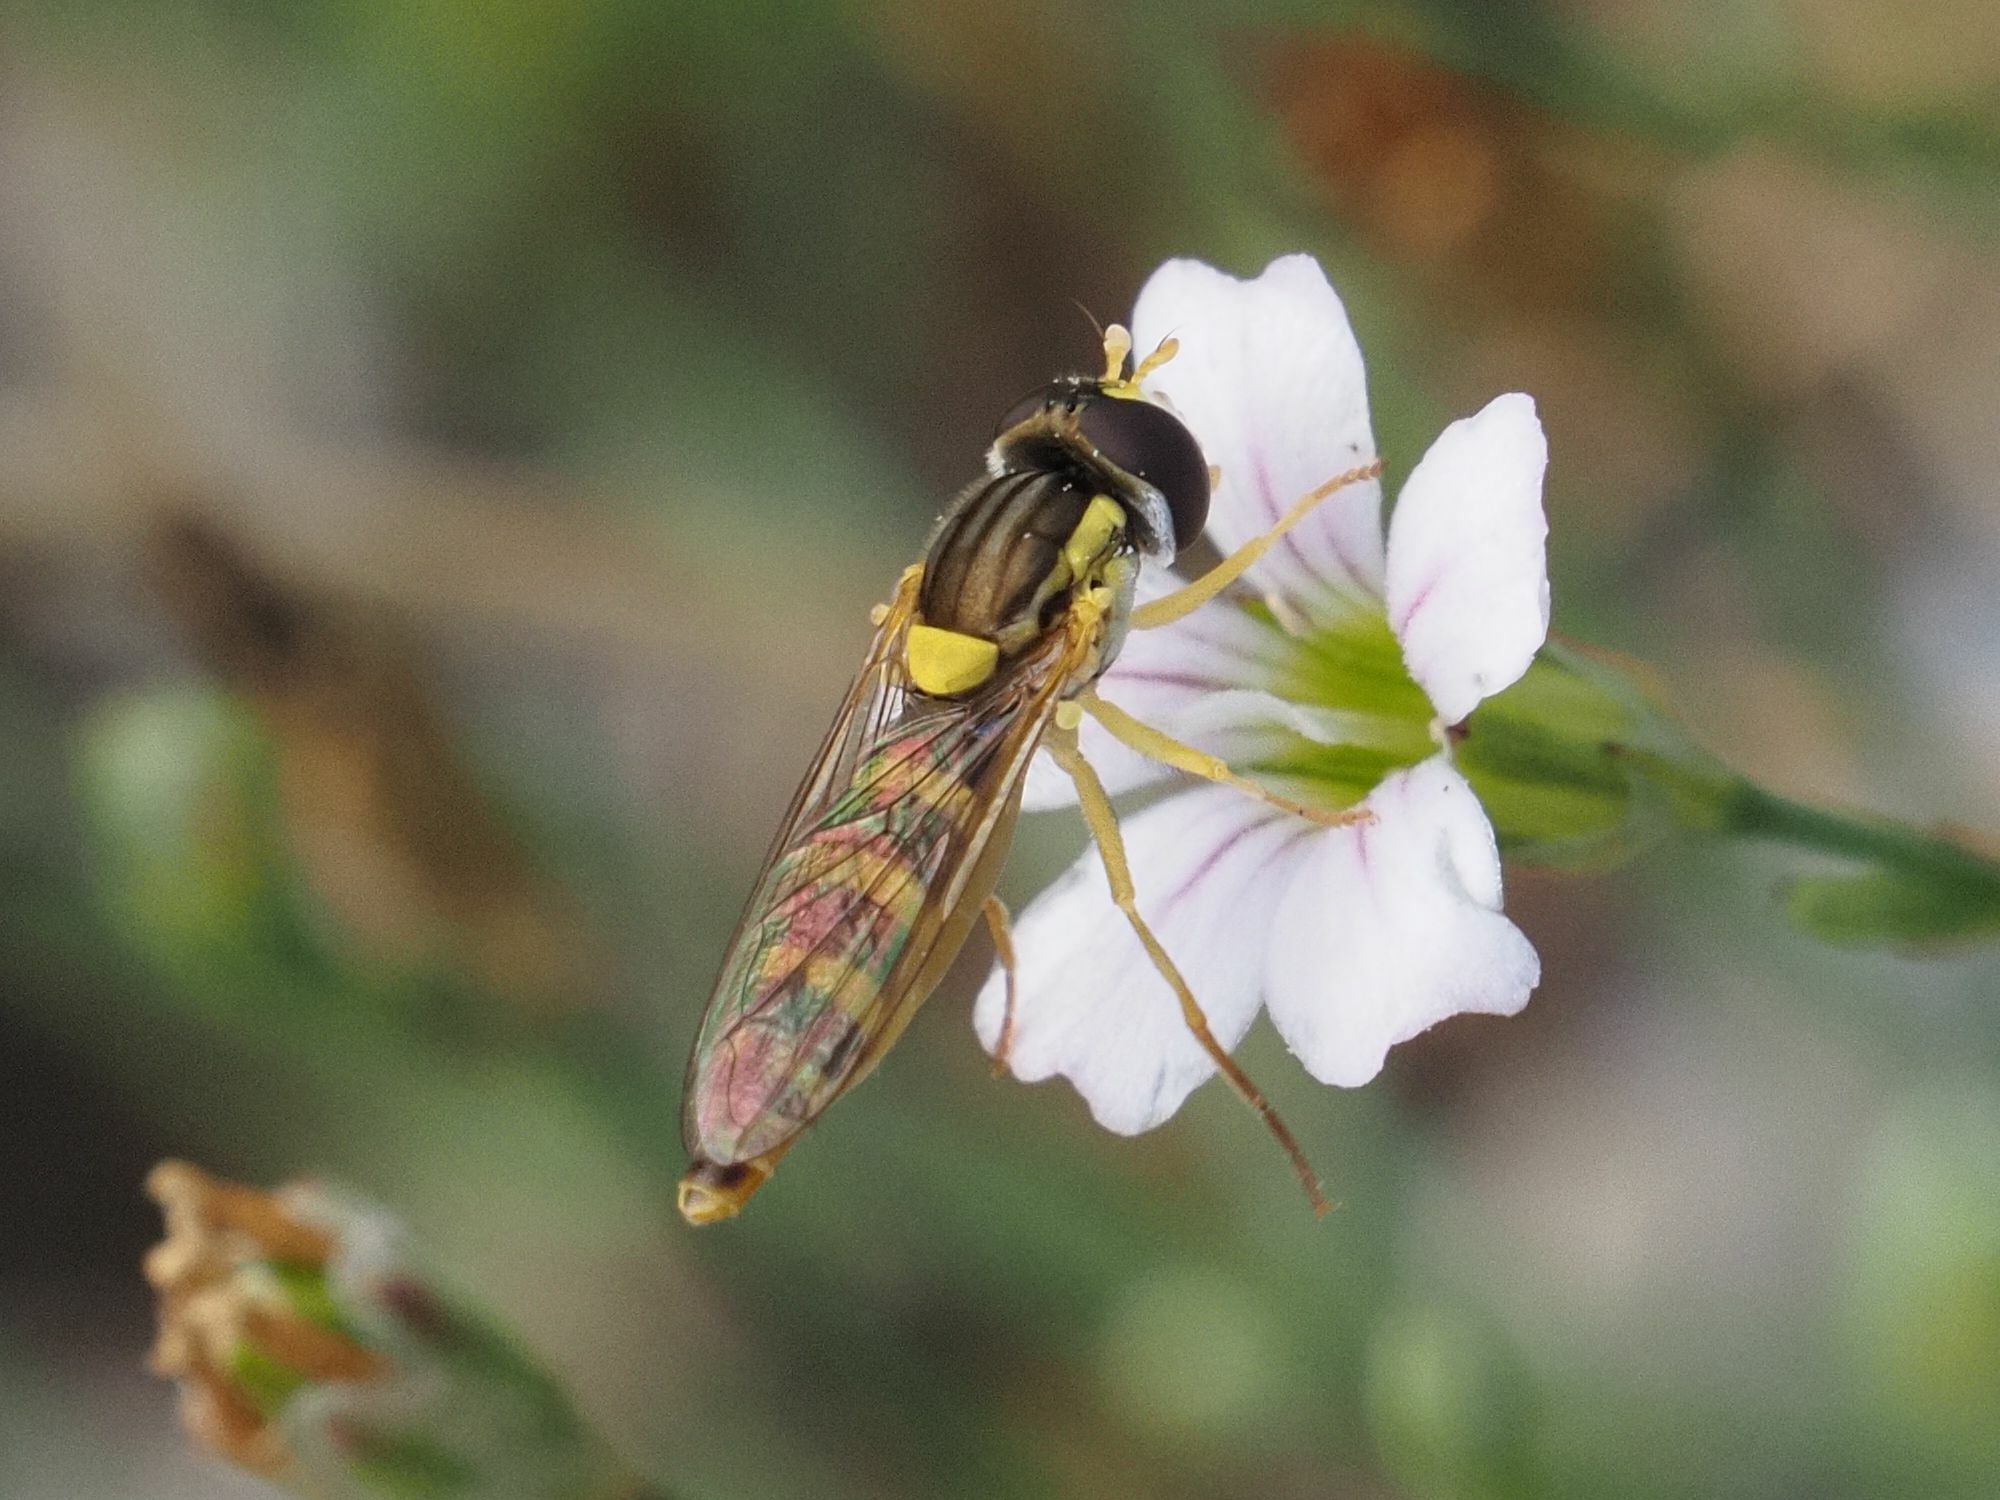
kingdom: Animalia
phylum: Arthropoda
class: Insecta
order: Diptera
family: Syrphidae
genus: Sphaerophoria
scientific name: Sphaerophoria
